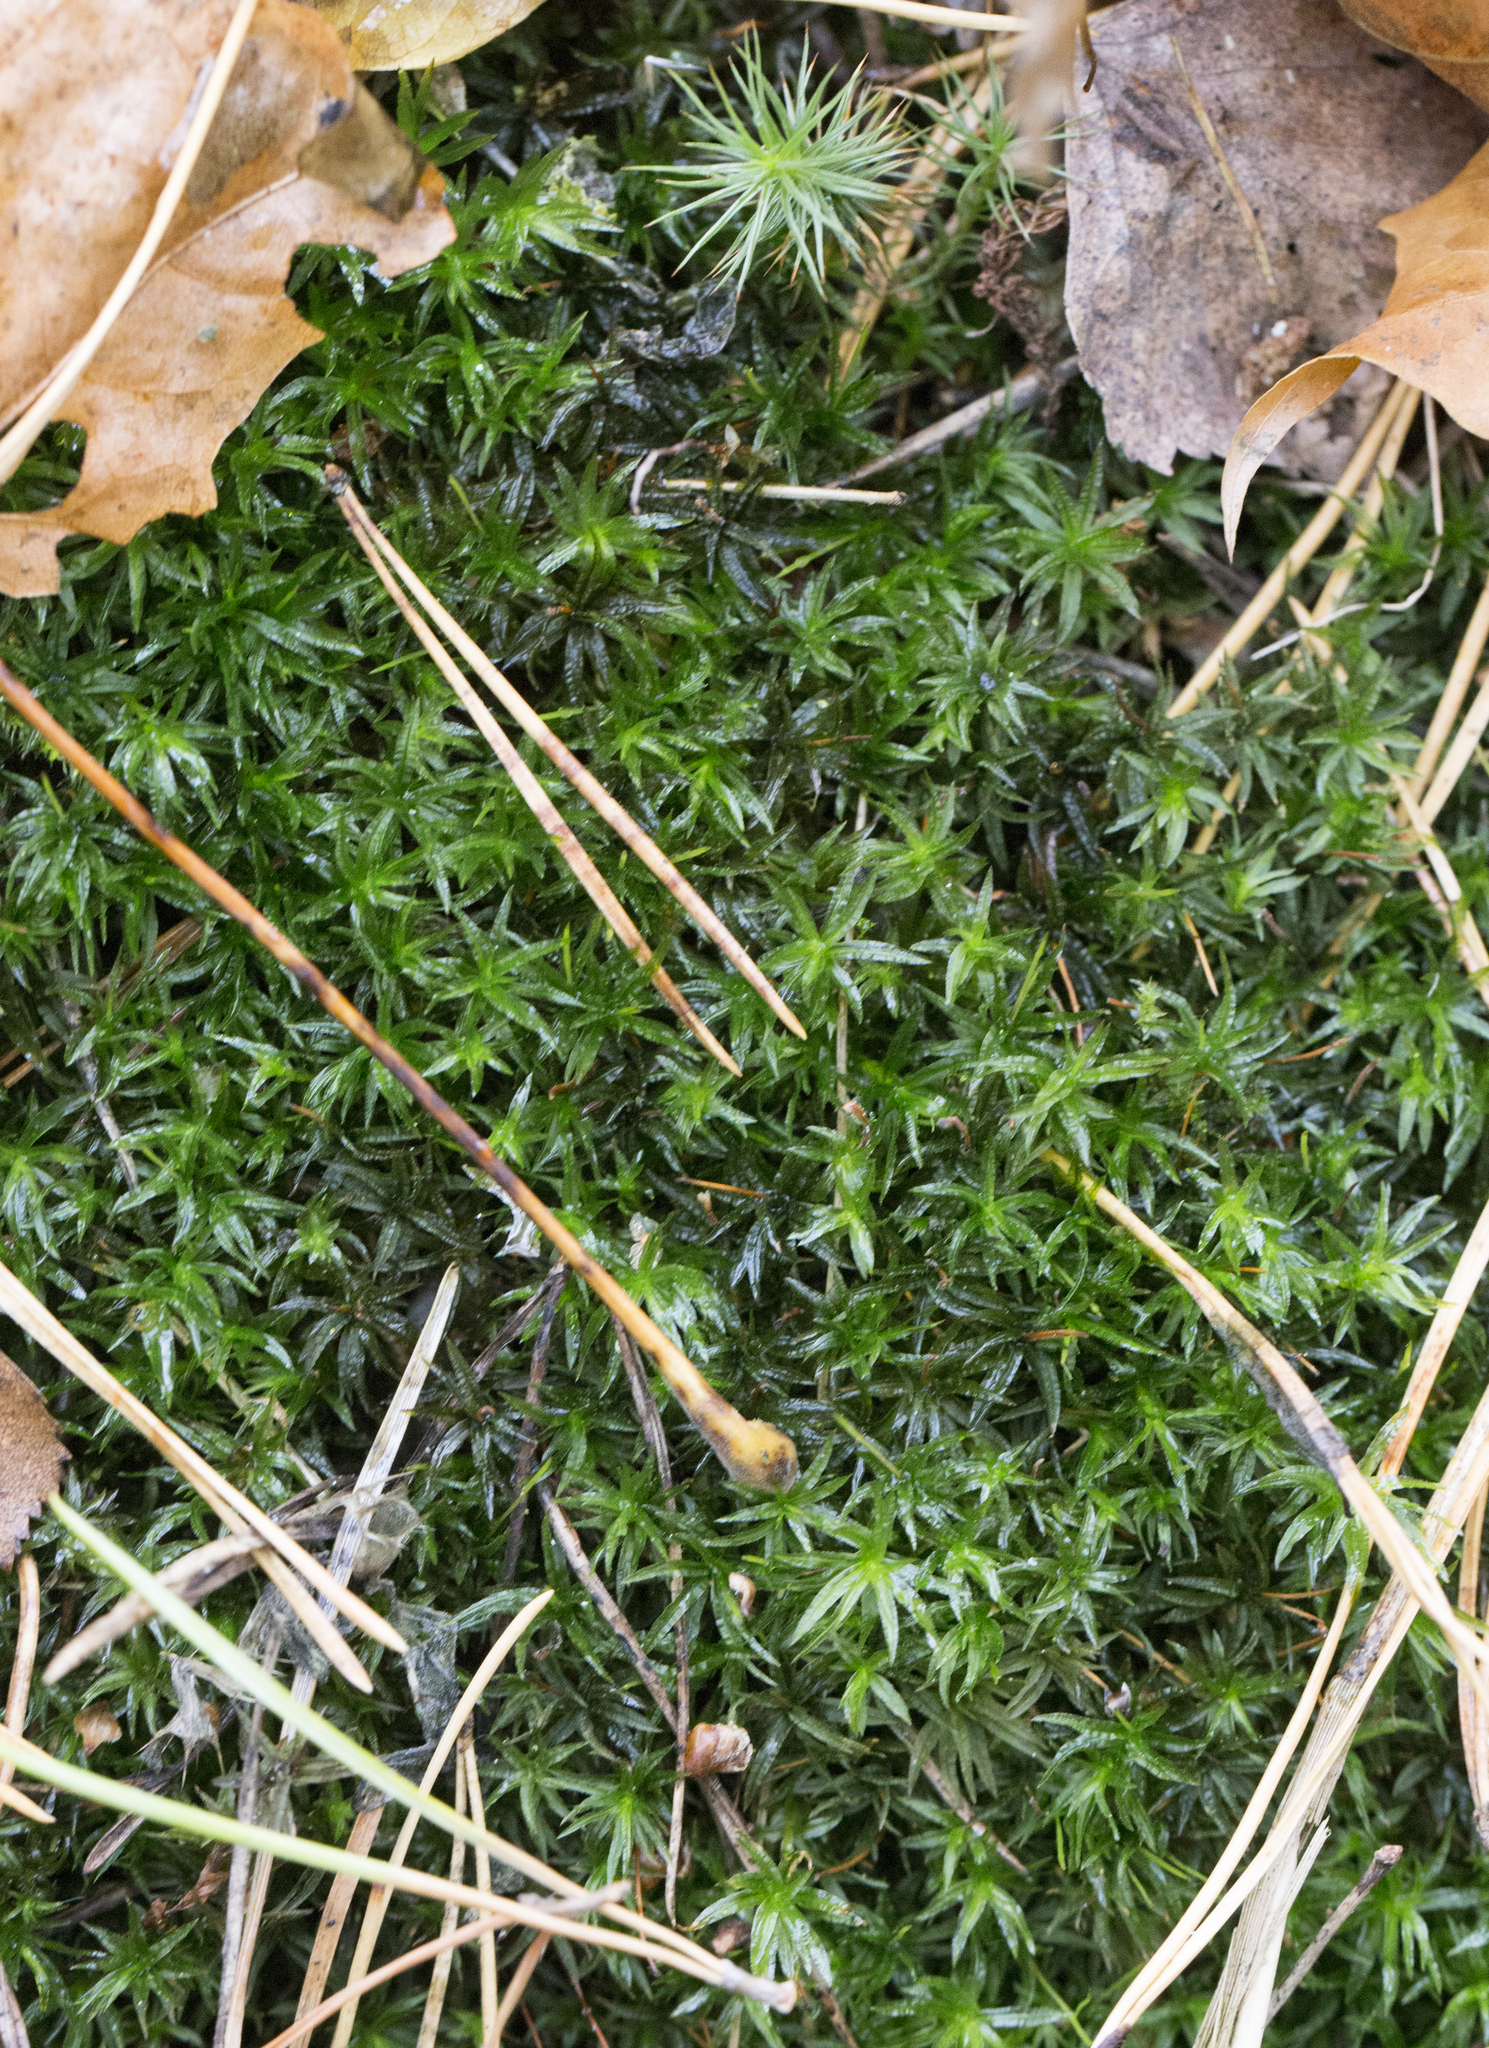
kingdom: Plantae
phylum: Bryophyta
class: Polytrichopsida
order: Polytrichales
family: Polytrichaceae
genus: Atrichum
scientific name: Atrichum undulatum
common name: Common smoothcap
